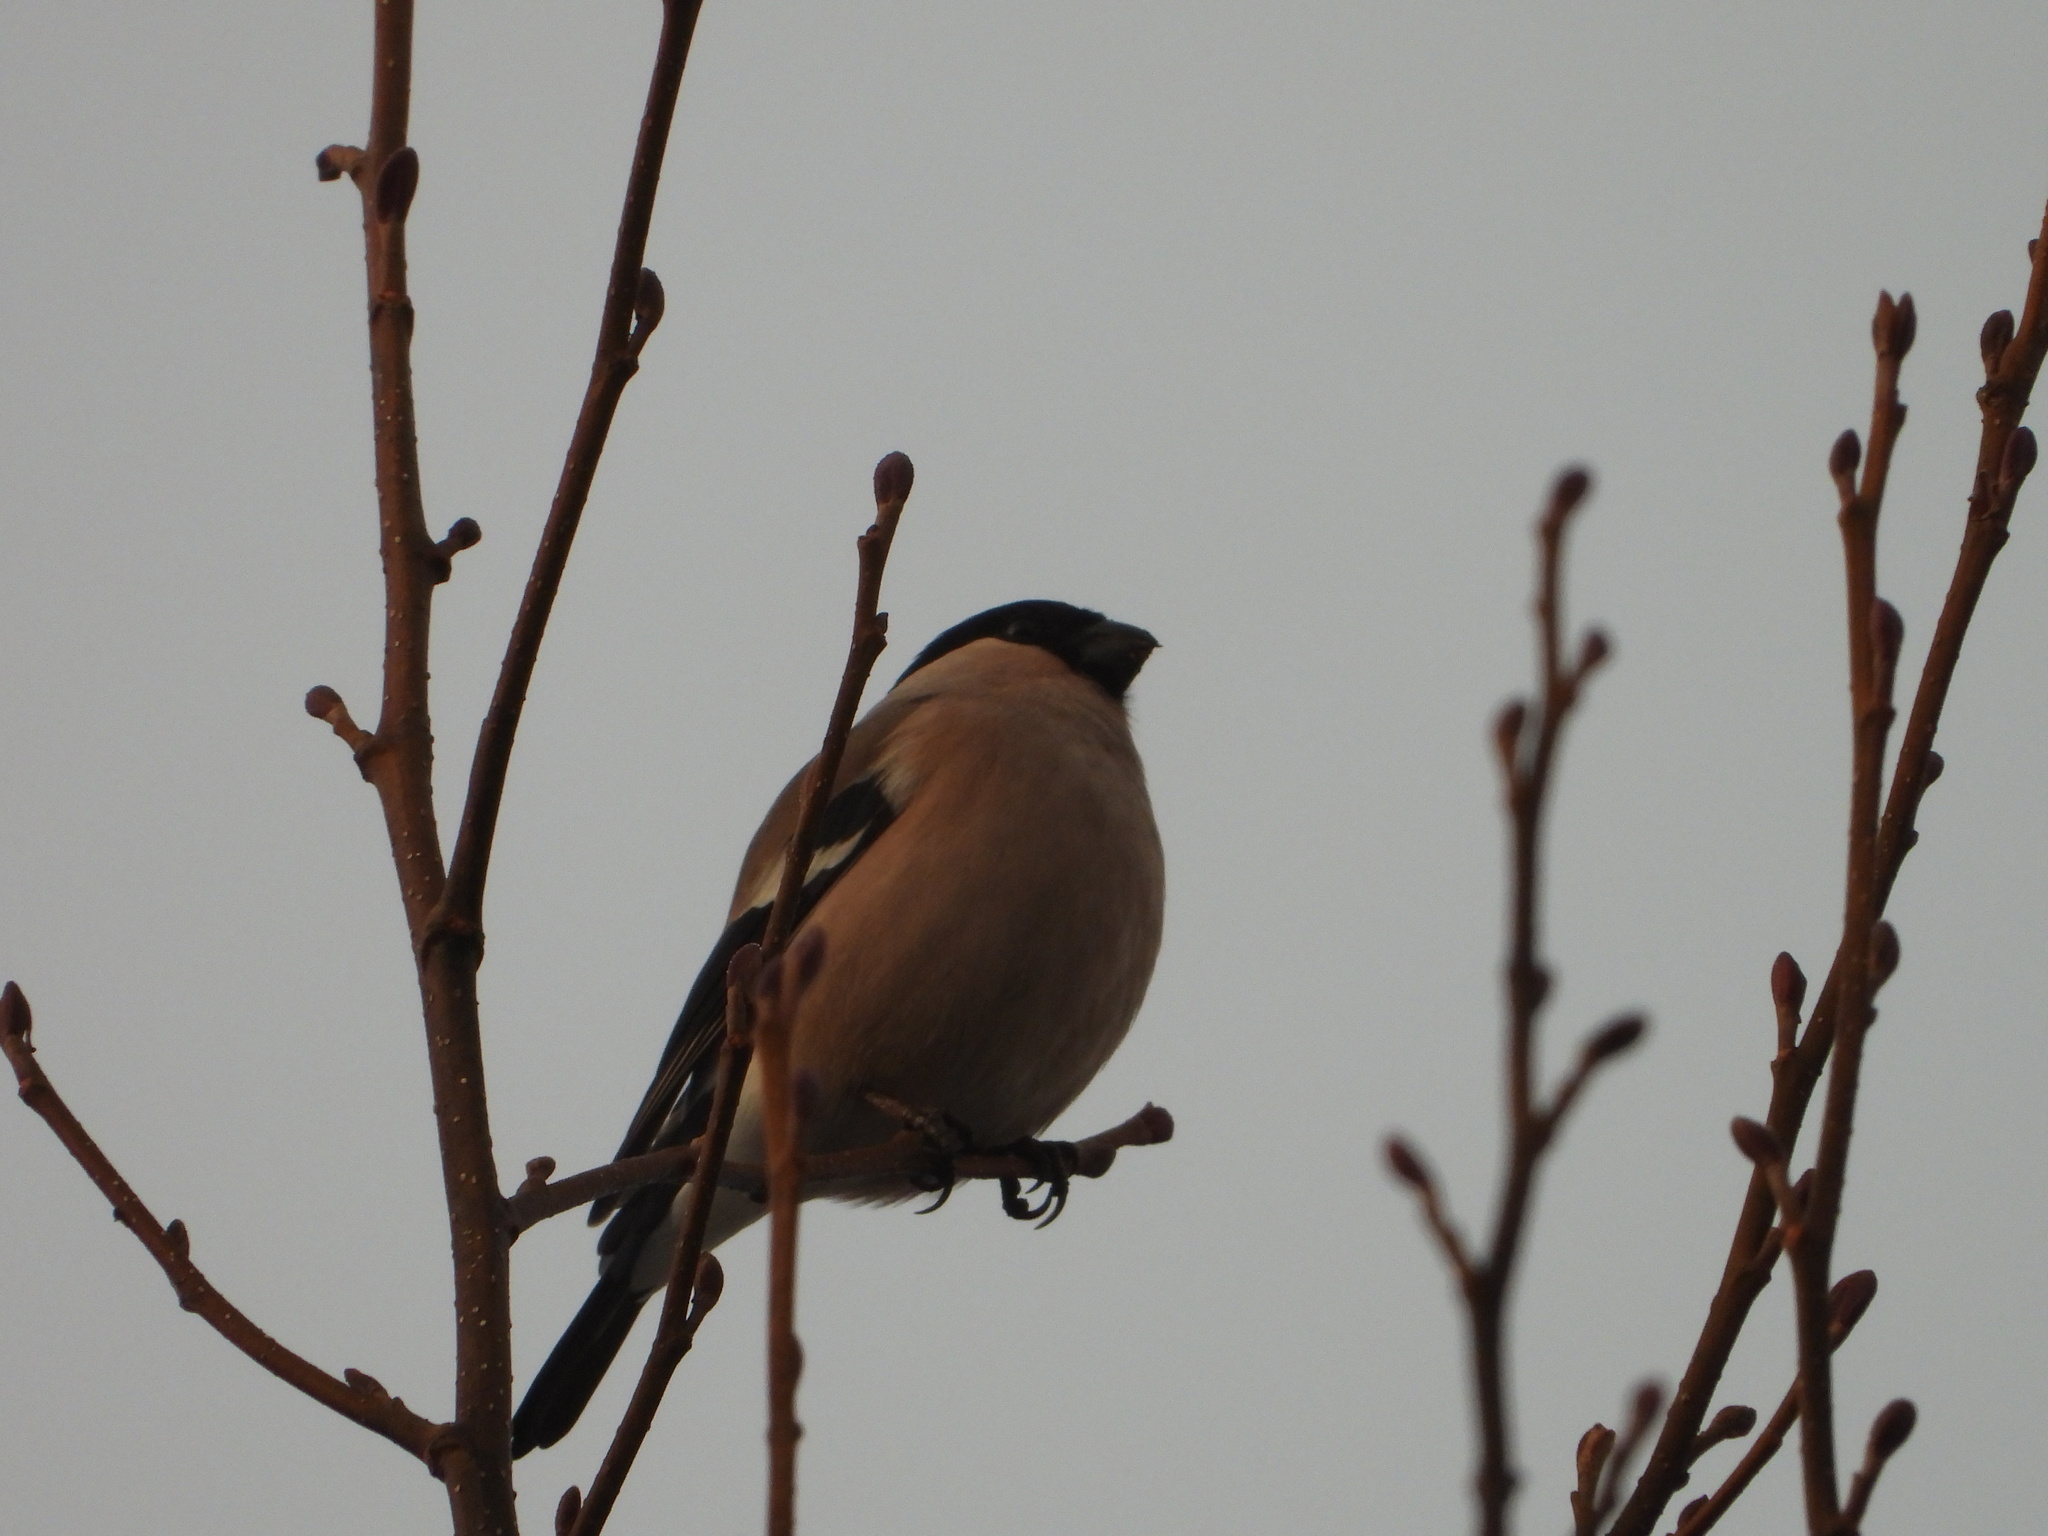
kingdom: Animalia
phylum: Chordata
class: Aves
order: Passeriformes
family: Fringillidae
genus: Pyrrhula
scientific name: Pyrrhula pyrrhula
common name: Eurasian bullfinch
